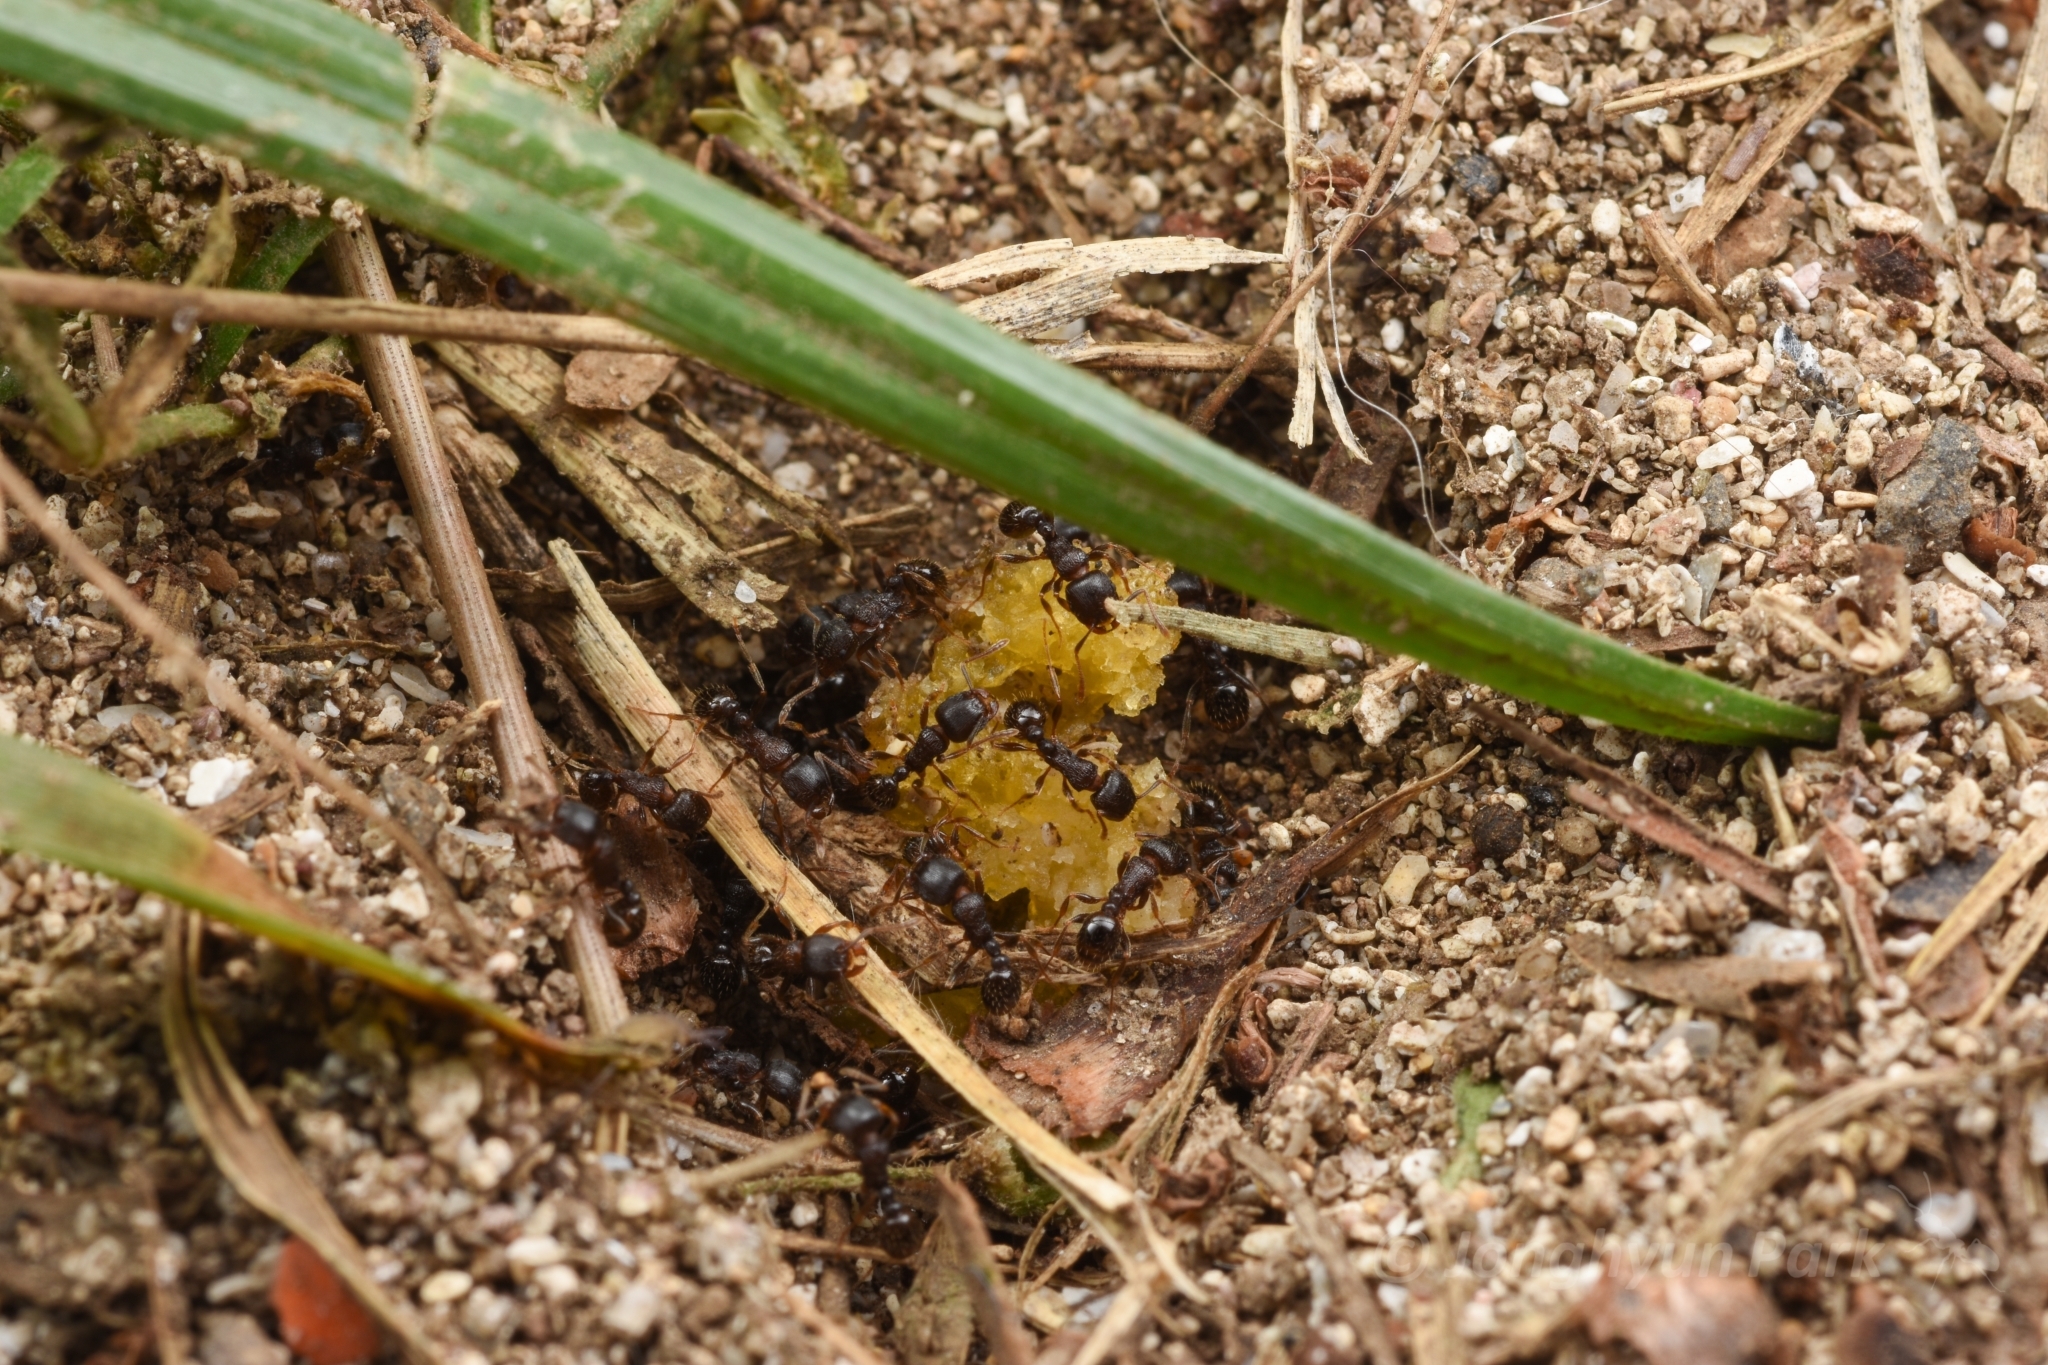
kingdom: Animalia
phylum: Arthropoda
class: Insecta
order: Hymenoptera
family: Formicidae
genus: Tetramorium
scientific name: Tetramorium tsushimae
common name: Ant
